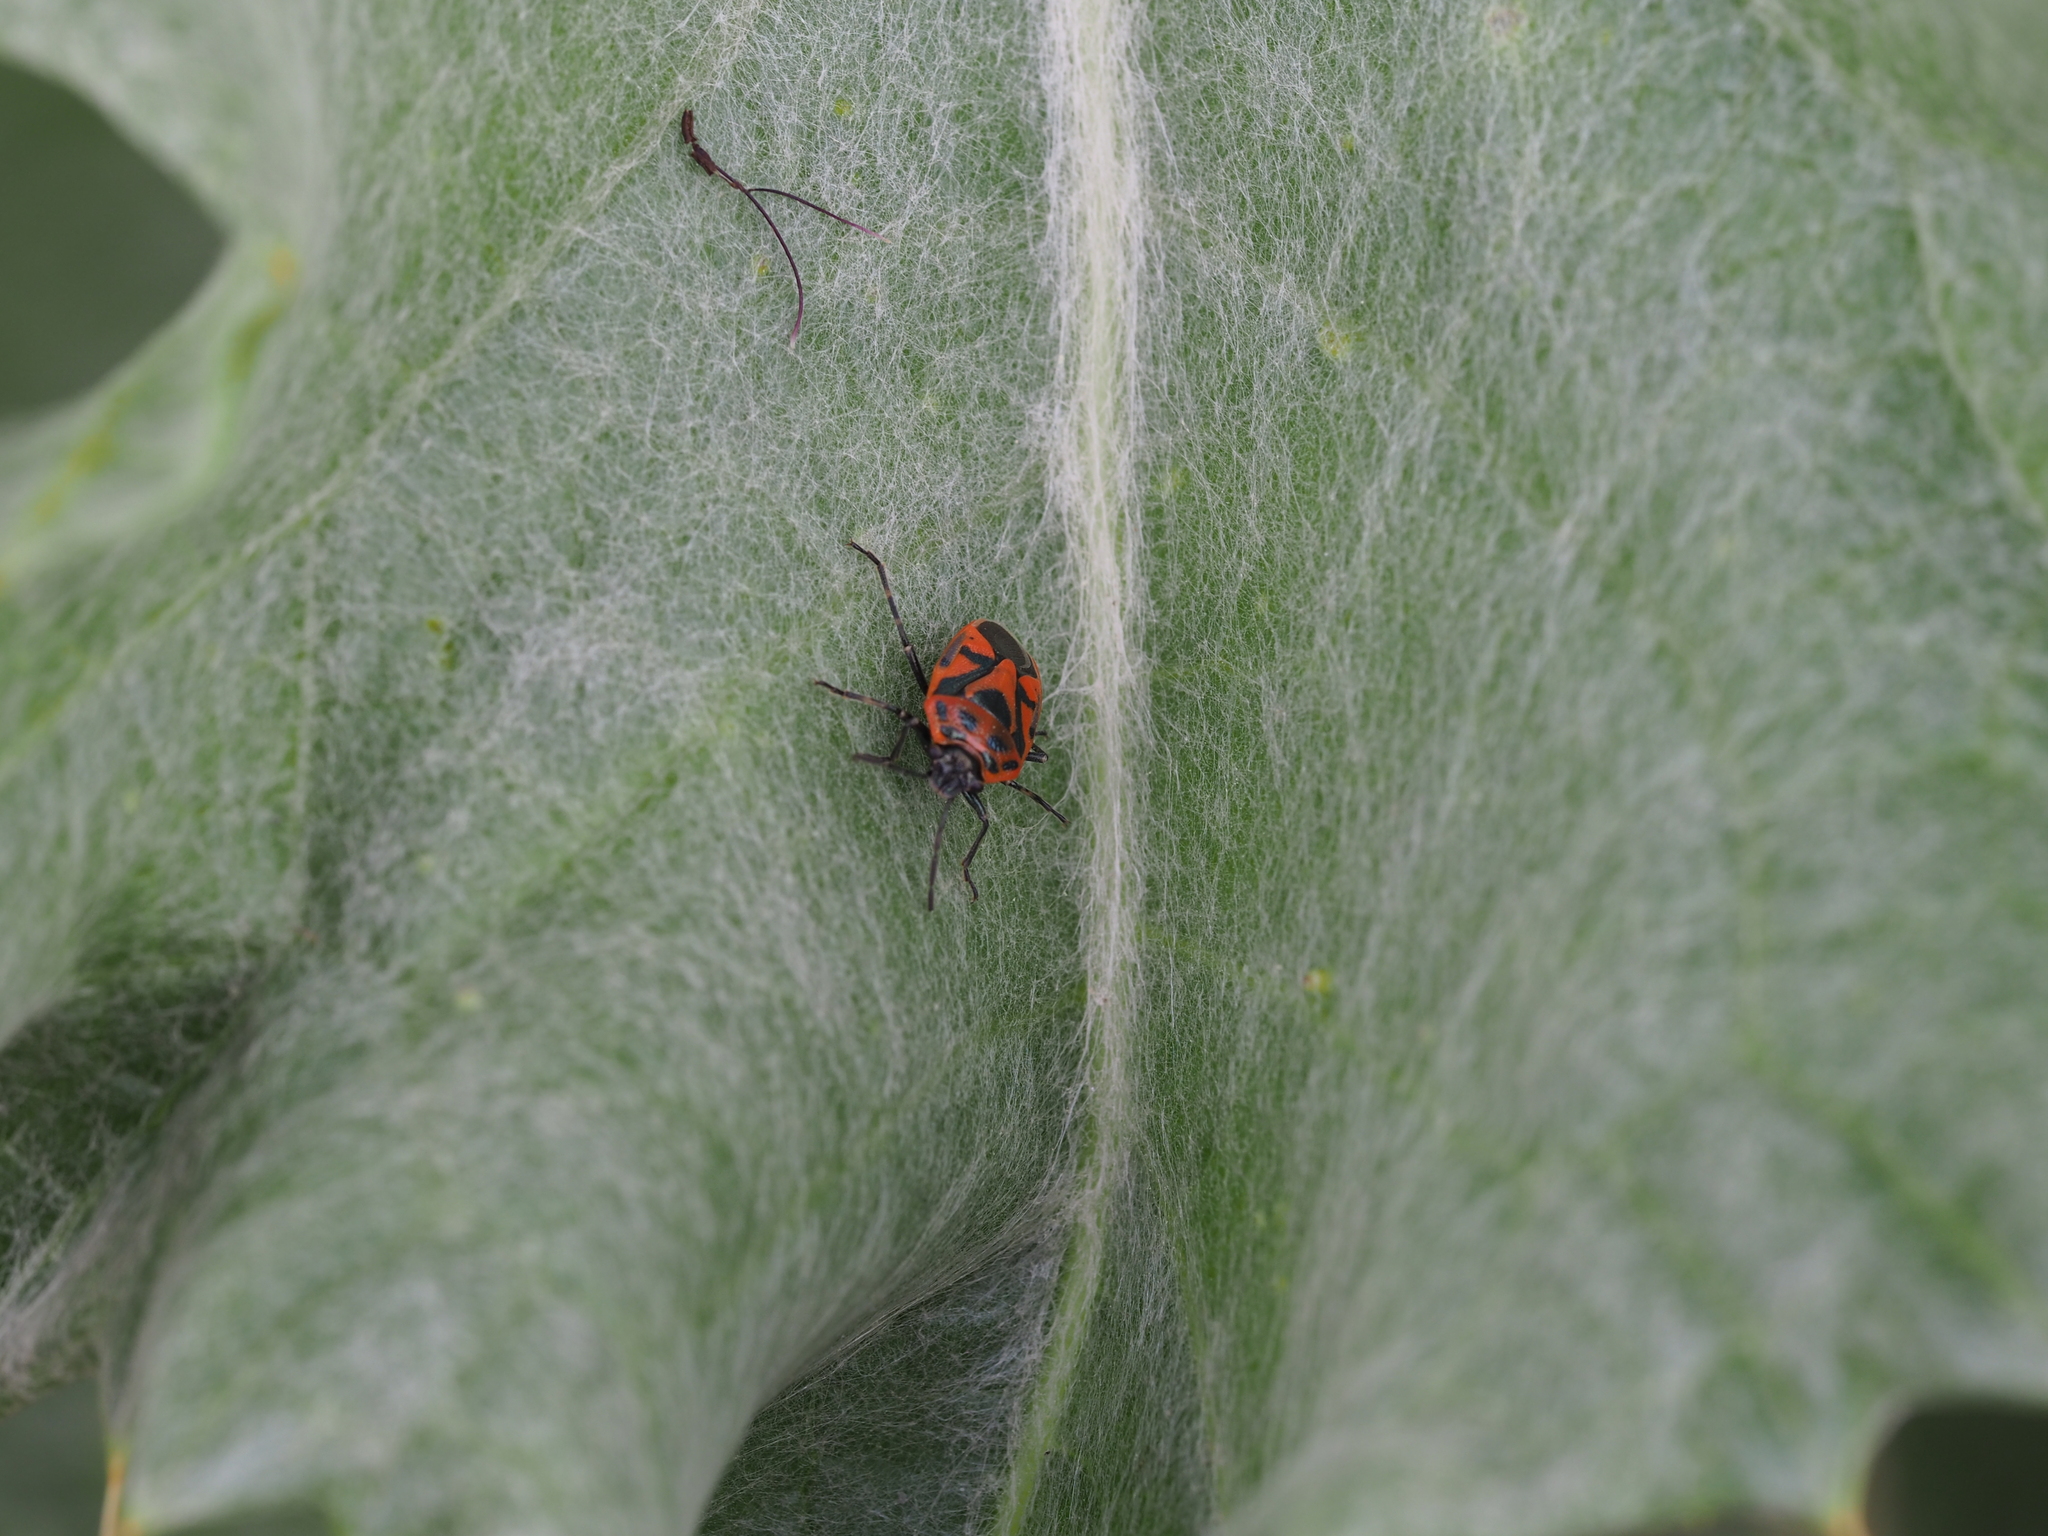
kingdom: Animalia
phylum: Arthropoda
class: Insecta
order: Hemiptera
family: Pentatomidae
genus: Eurydema
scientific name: Eurydema ornata
